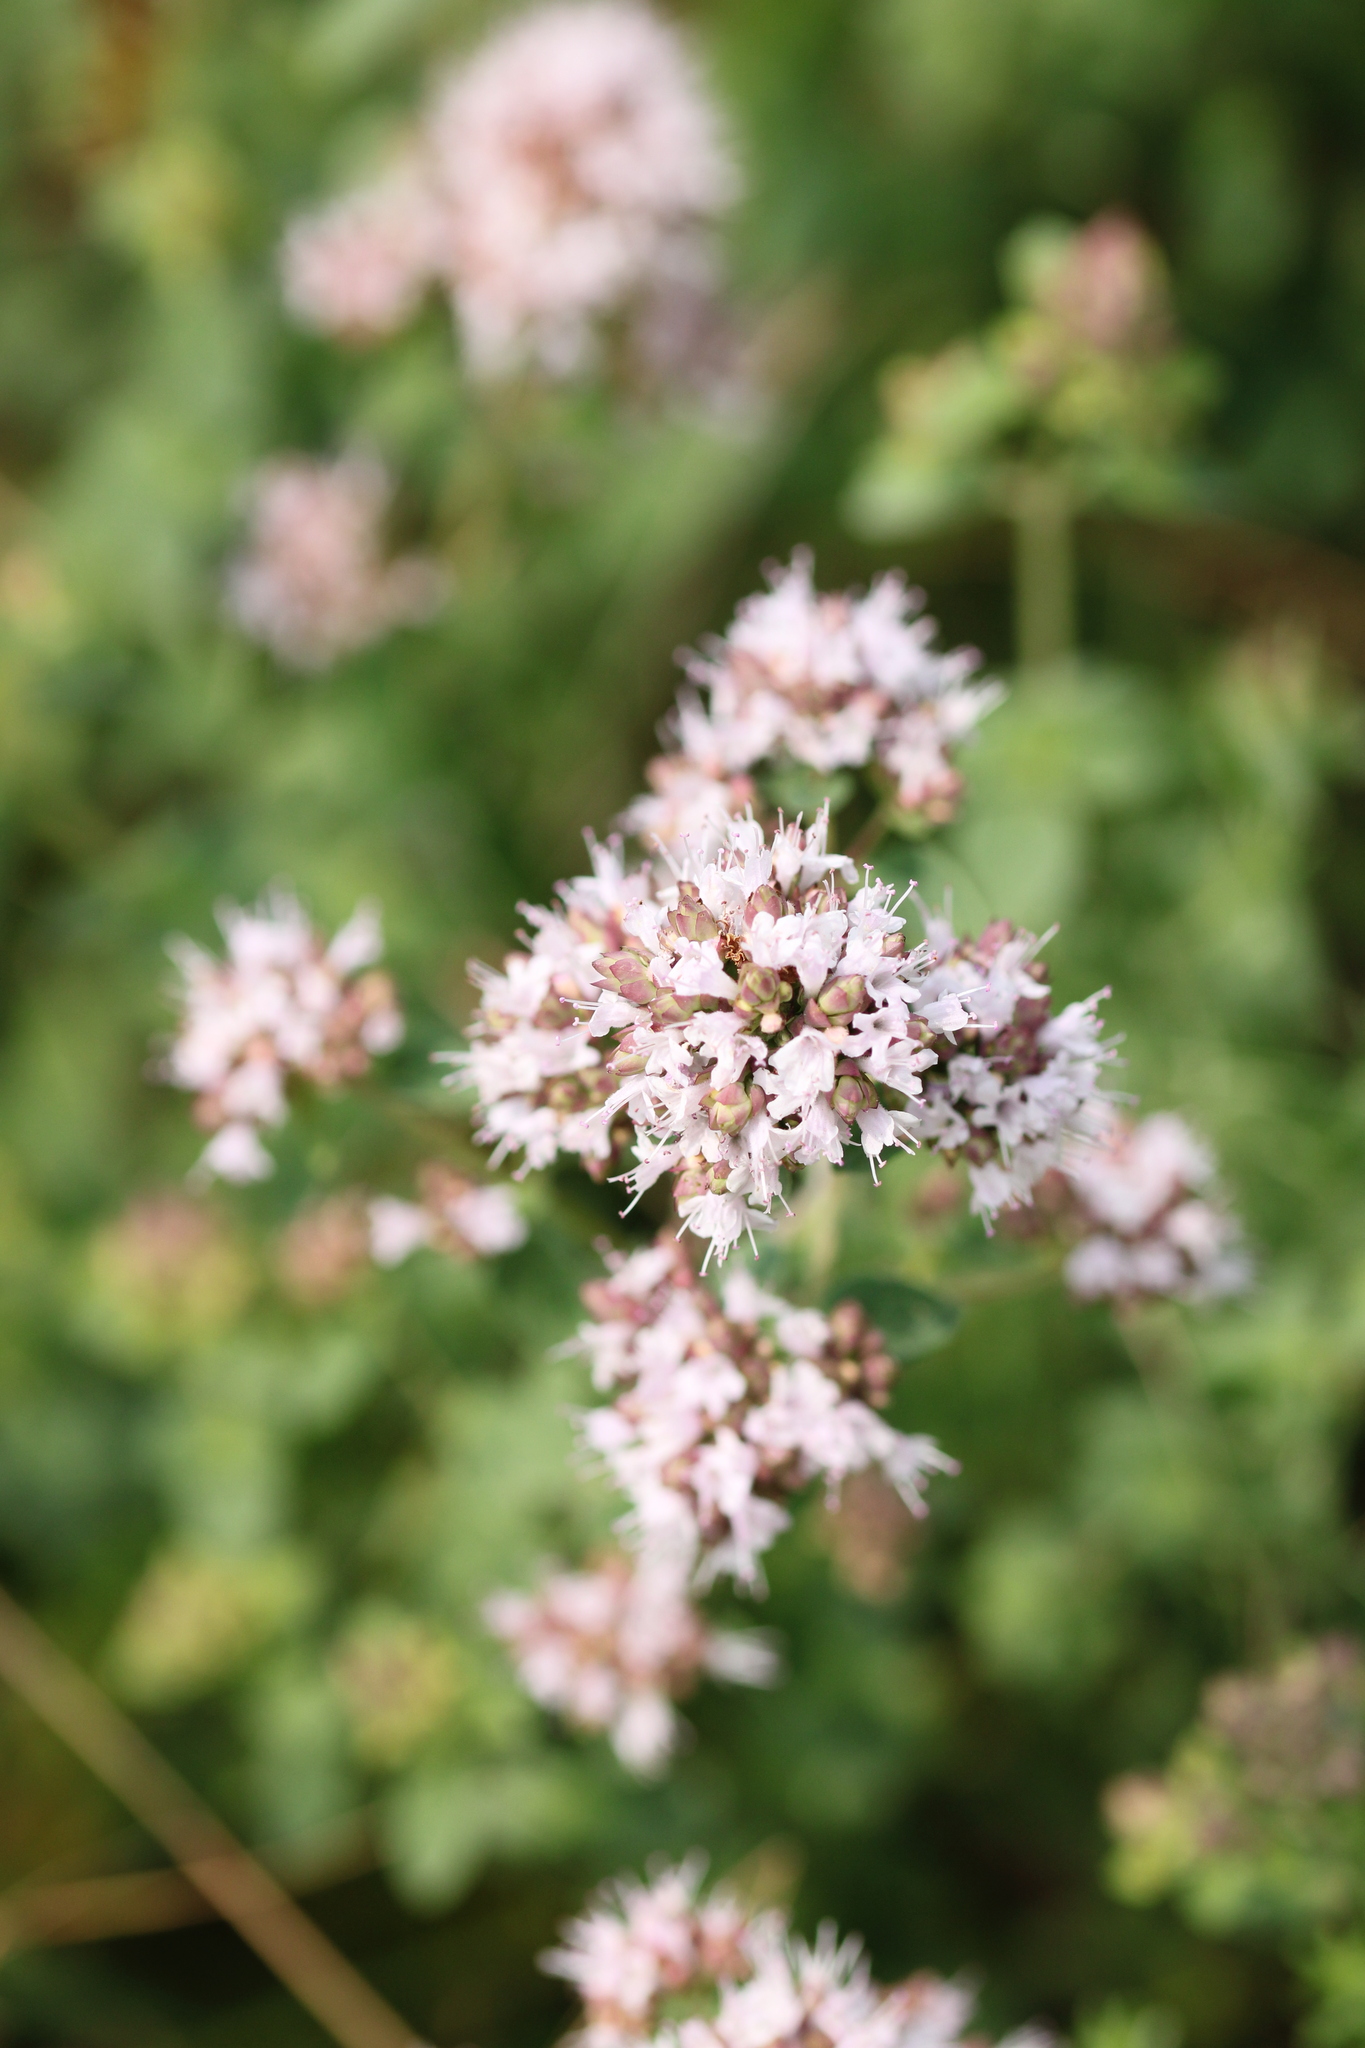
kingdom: Plantae
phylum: Tracheophyta
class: Magnoliopsida
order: Lamiales
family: Lamiaceae
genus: Origanum
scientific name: Origanum vulgare
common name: Wild marjoram
